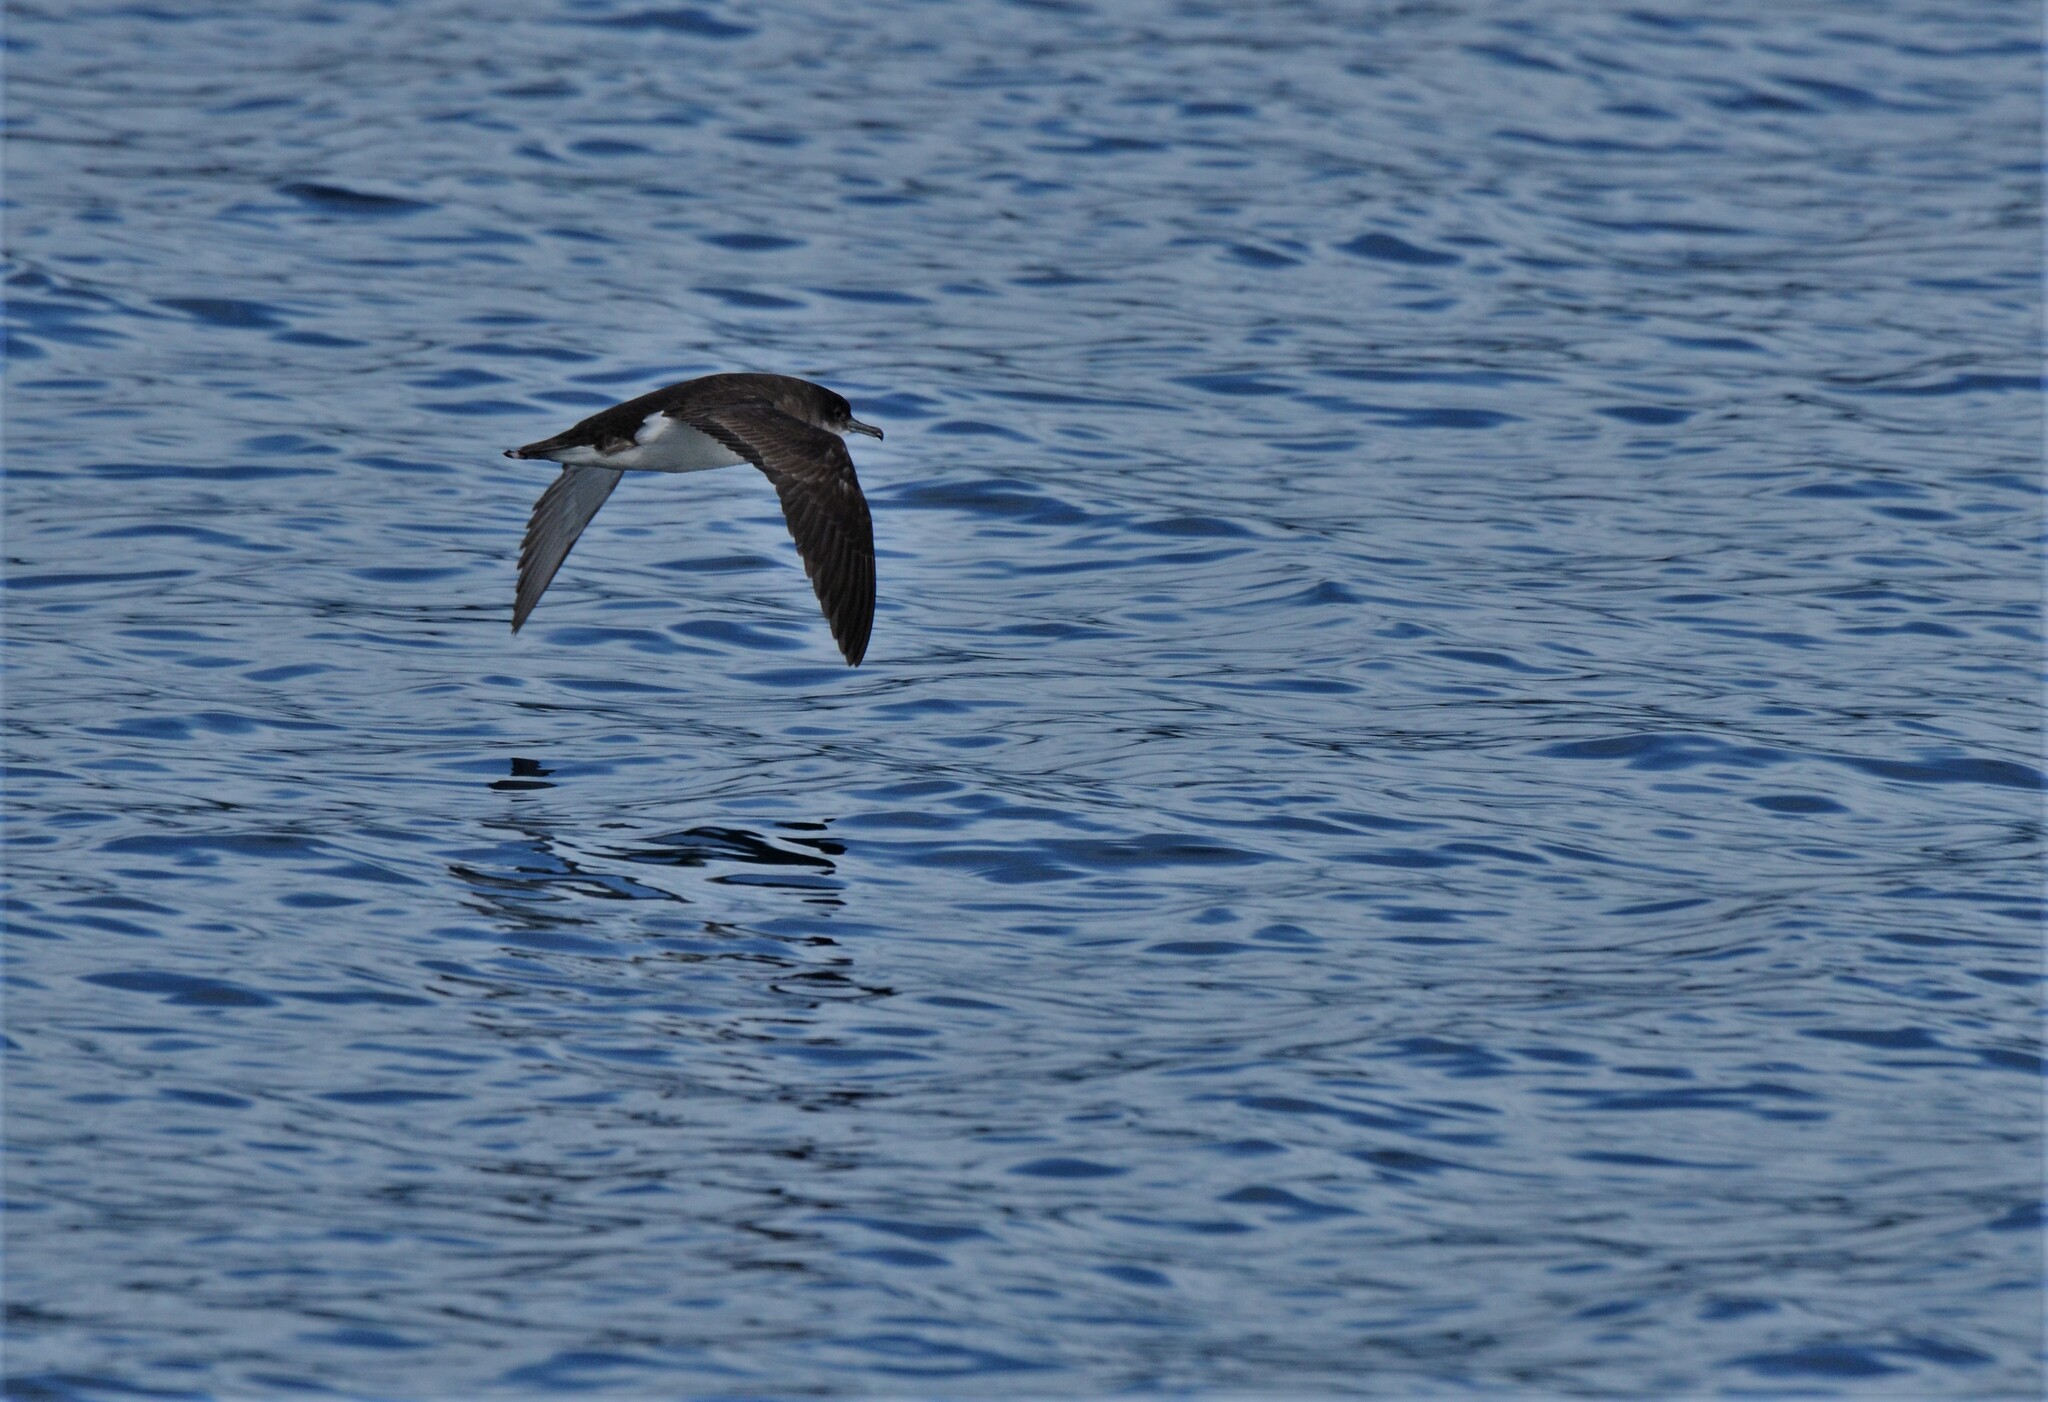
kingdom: Animalia
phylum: Chordata
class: Aves
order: Procellariiformes
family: Procellariidae
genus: Puffinus
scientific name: Puffinus gavia
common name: Fluttering shearwater
